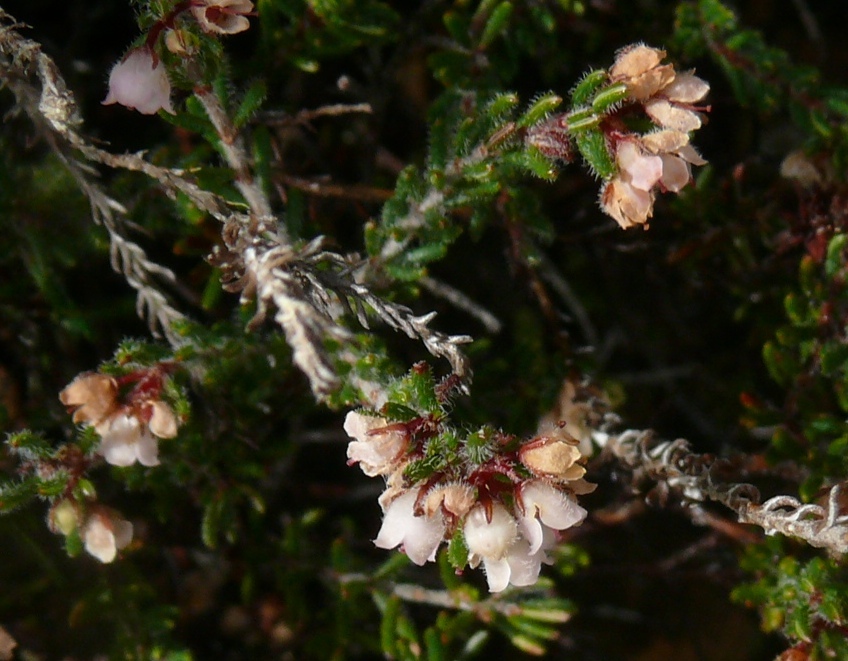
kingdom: Plantae
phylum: Tracheophyta
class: Magnoliopsida
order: Ericales
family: Ericaceae
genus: Erica
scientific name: Erica distorta
